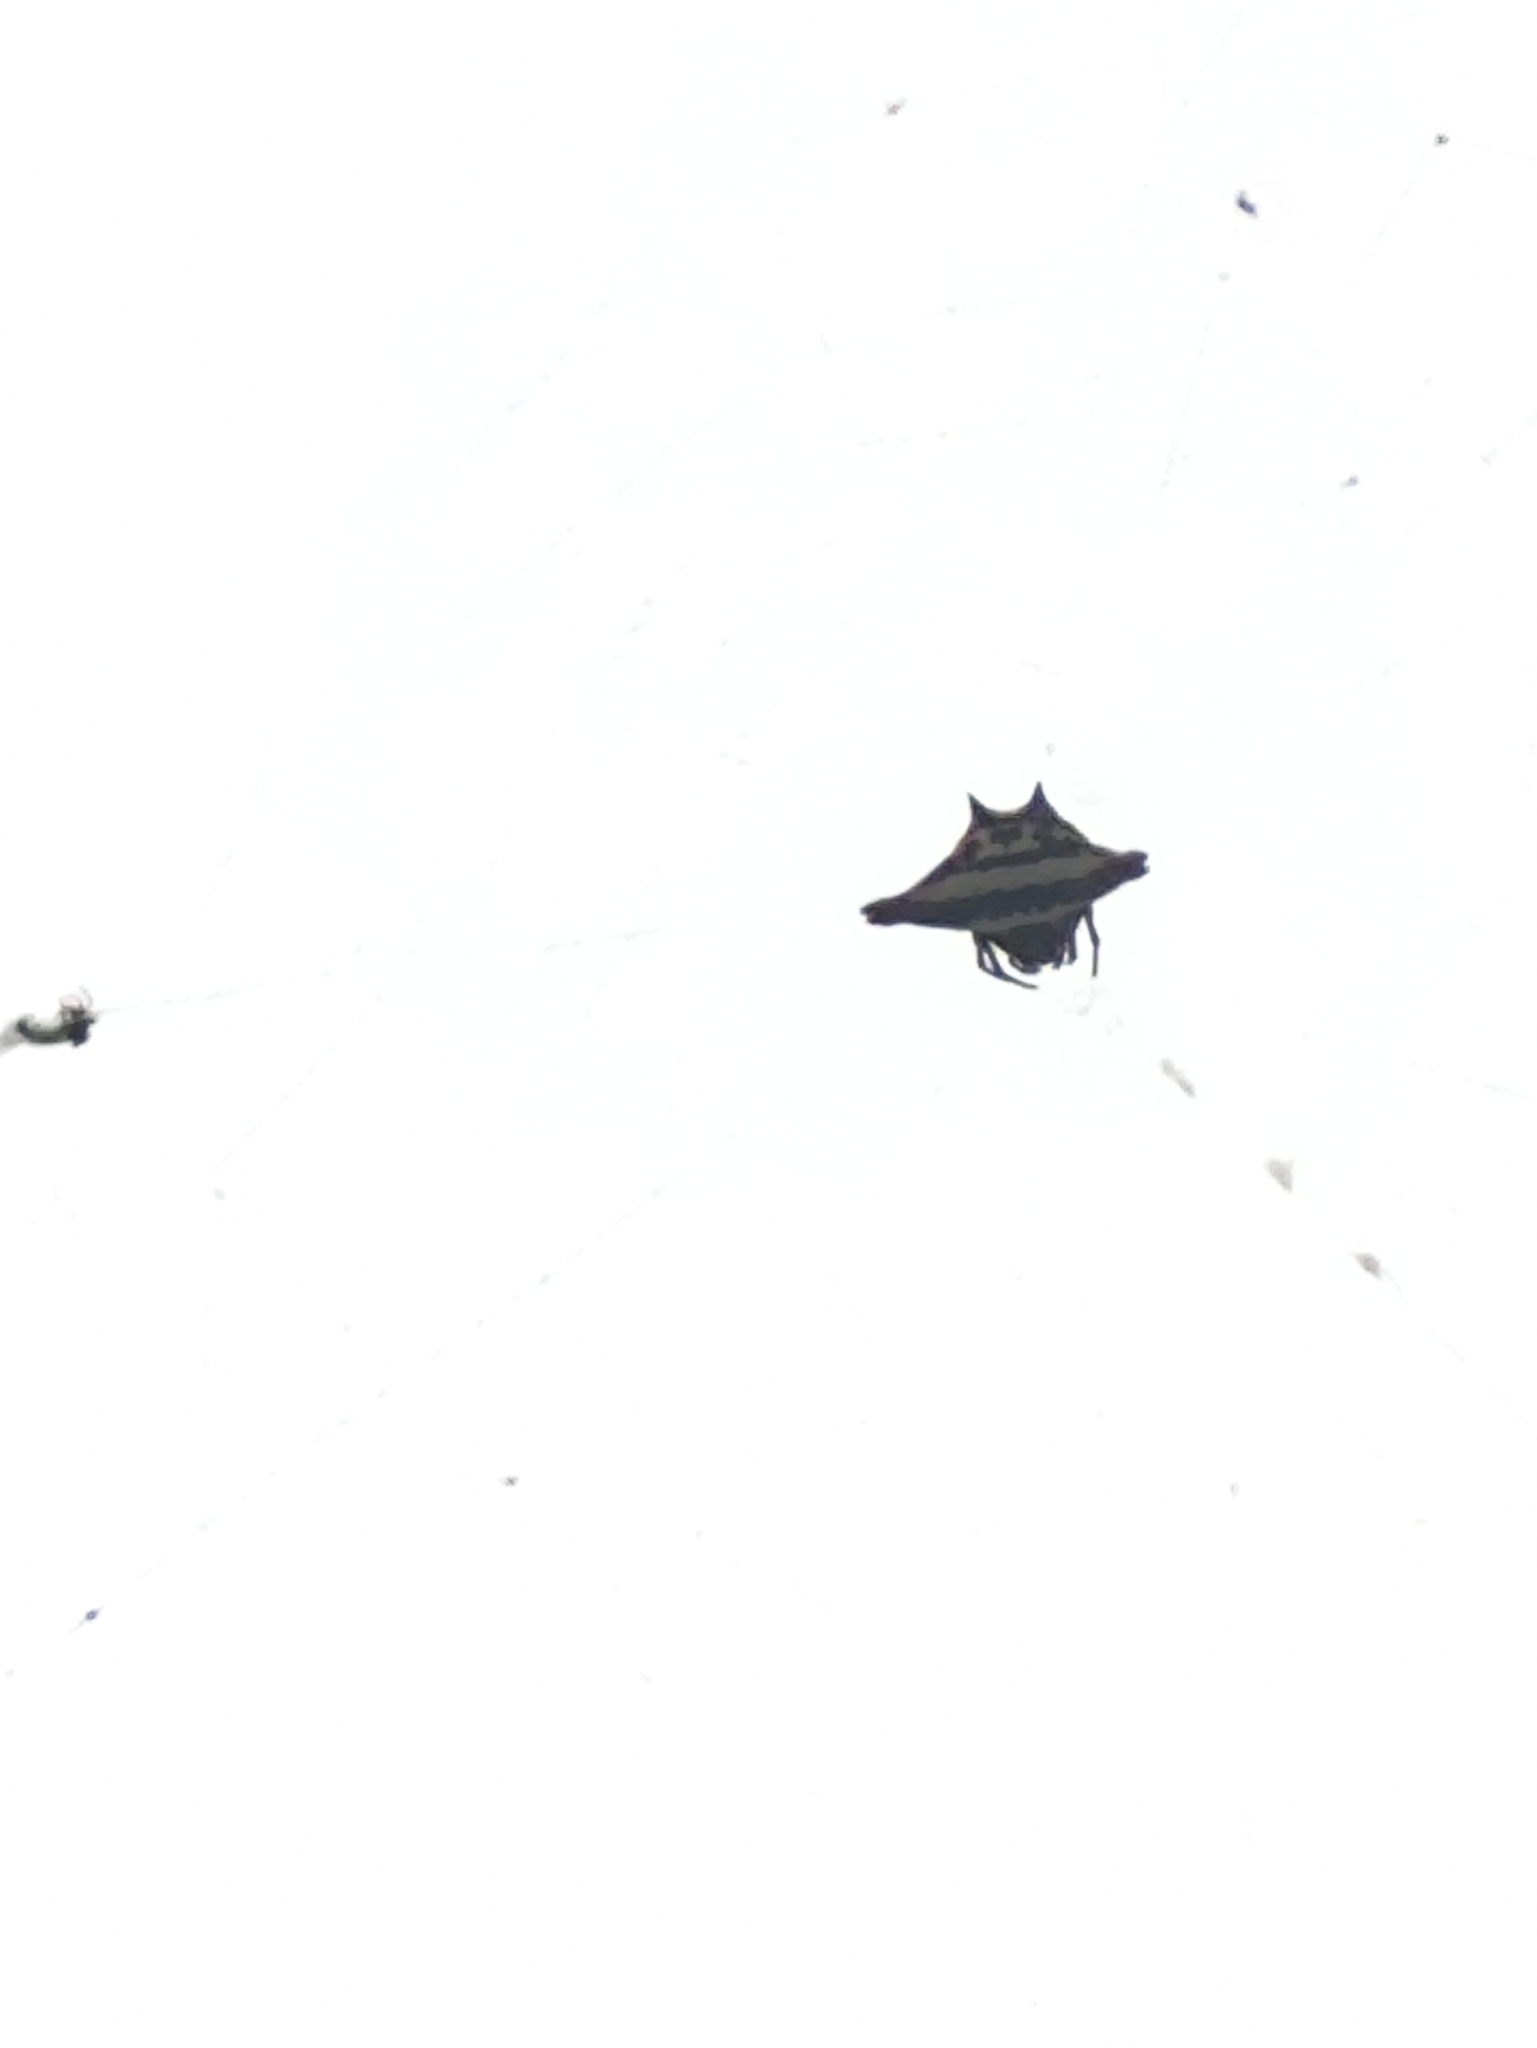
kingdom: Animalia
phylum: Arthropoda
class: Arachnida
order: Araneae
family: Araneidae
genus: Gasteracantha
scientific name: Gasteracantha geminata
